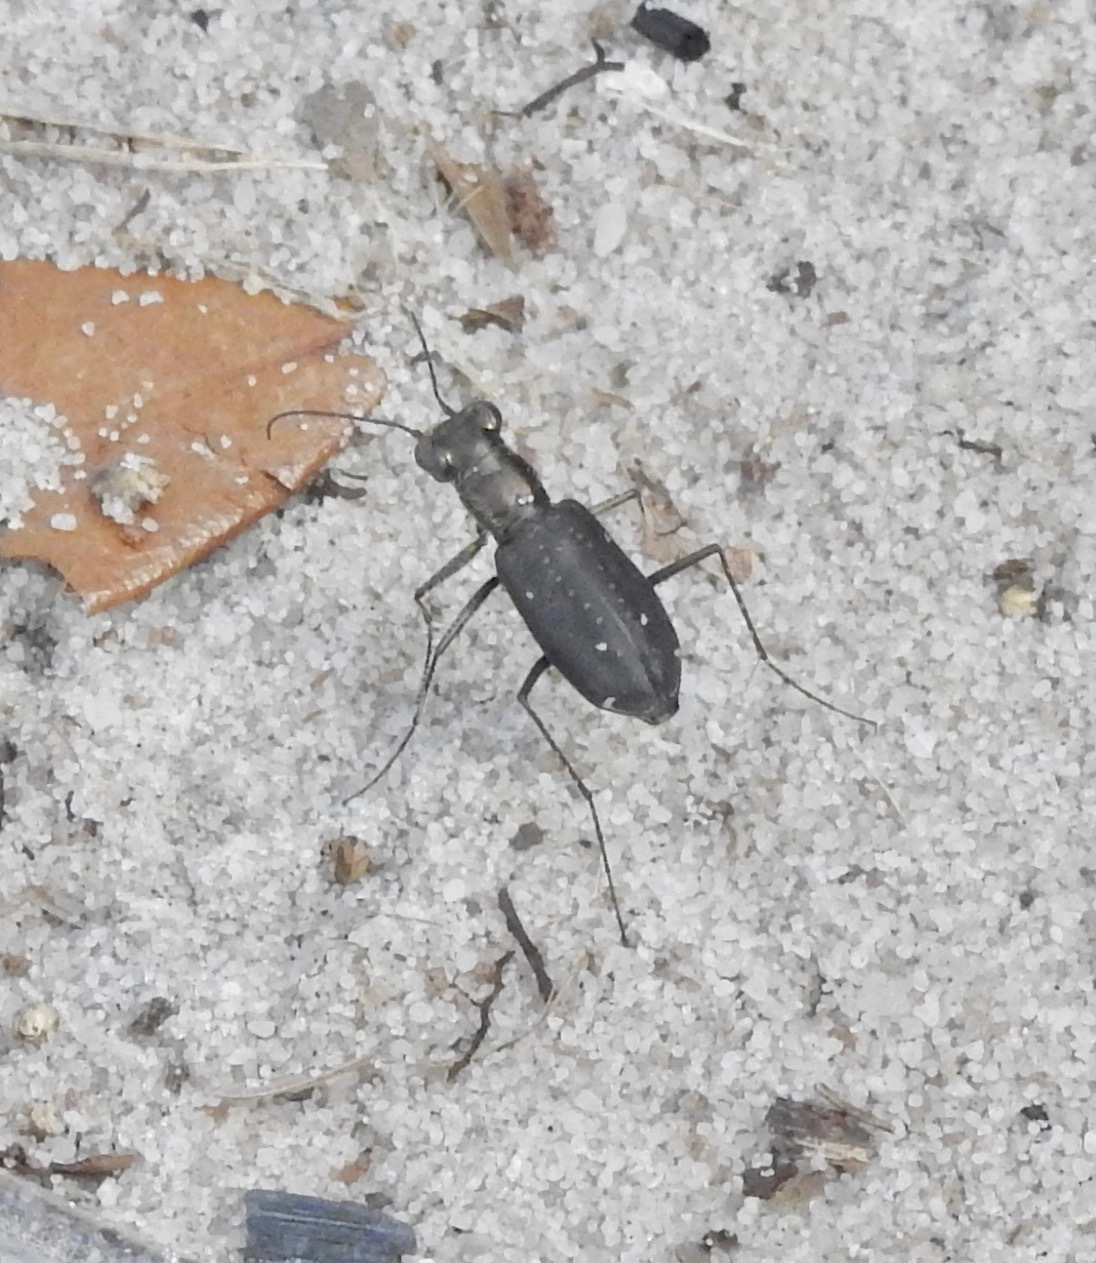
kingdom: Animalia
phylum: Arthropoda
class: Insecta
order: Coleoptera
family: Carabidae
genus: Cicindela
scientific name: Cicindela punctulata
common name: Punctured tiger beetle
